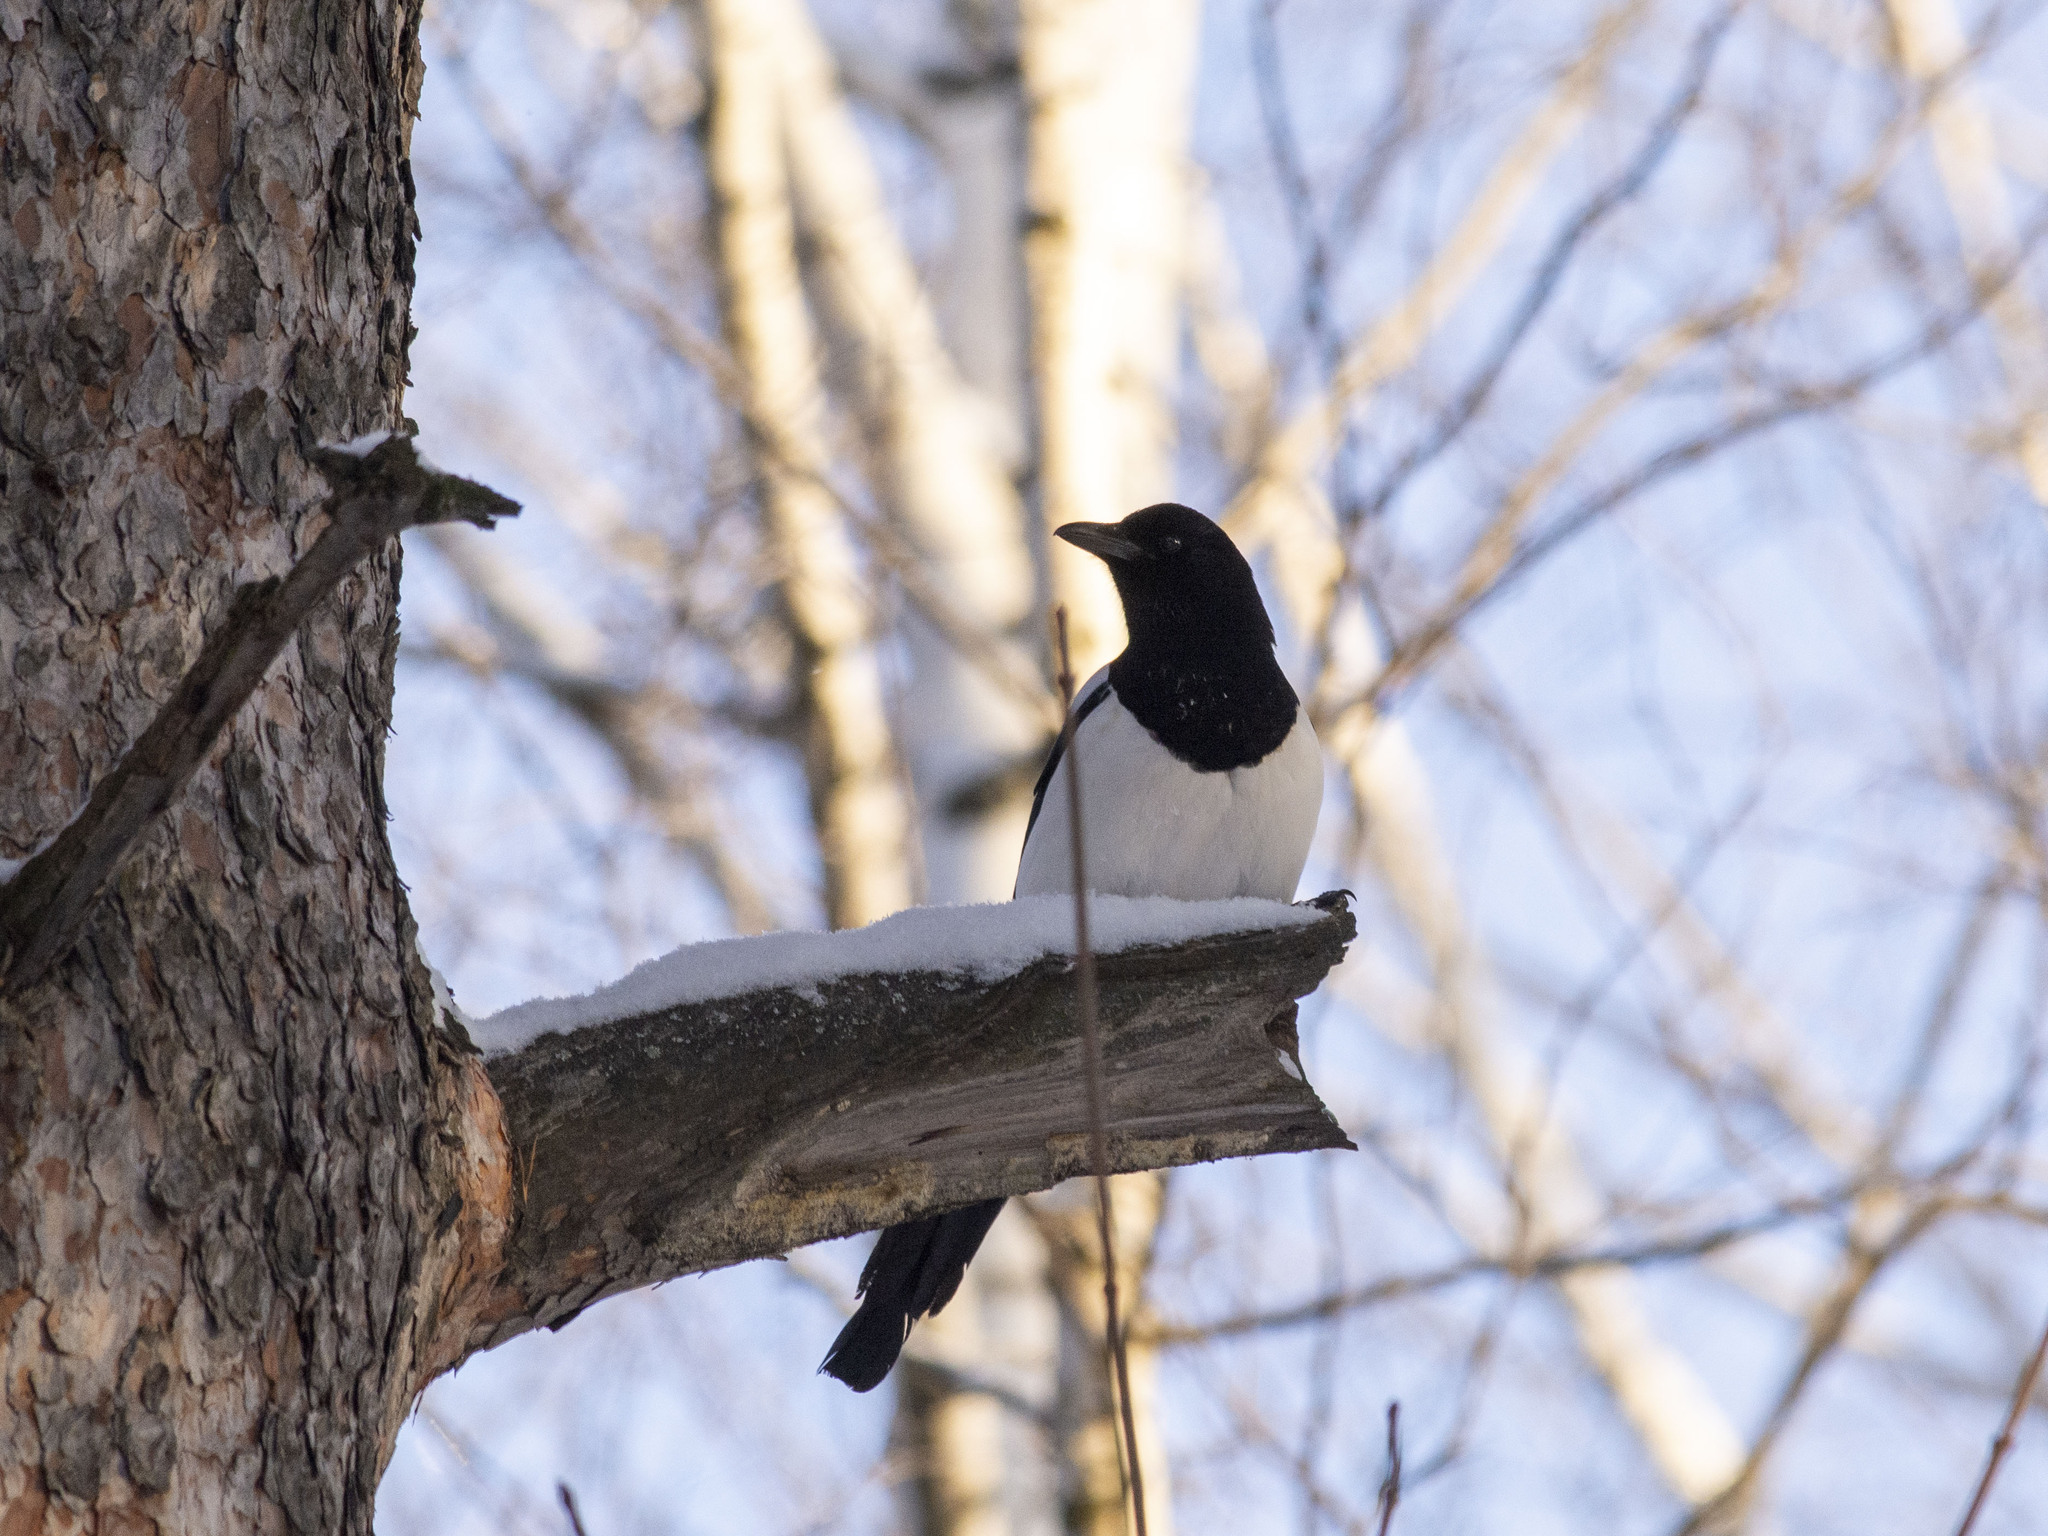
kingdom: Animalia
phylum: Chordata
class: Aves
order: Passeriformes
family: Corvidae
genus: Pica
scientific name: Pica pica
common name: Eurasian magpie
